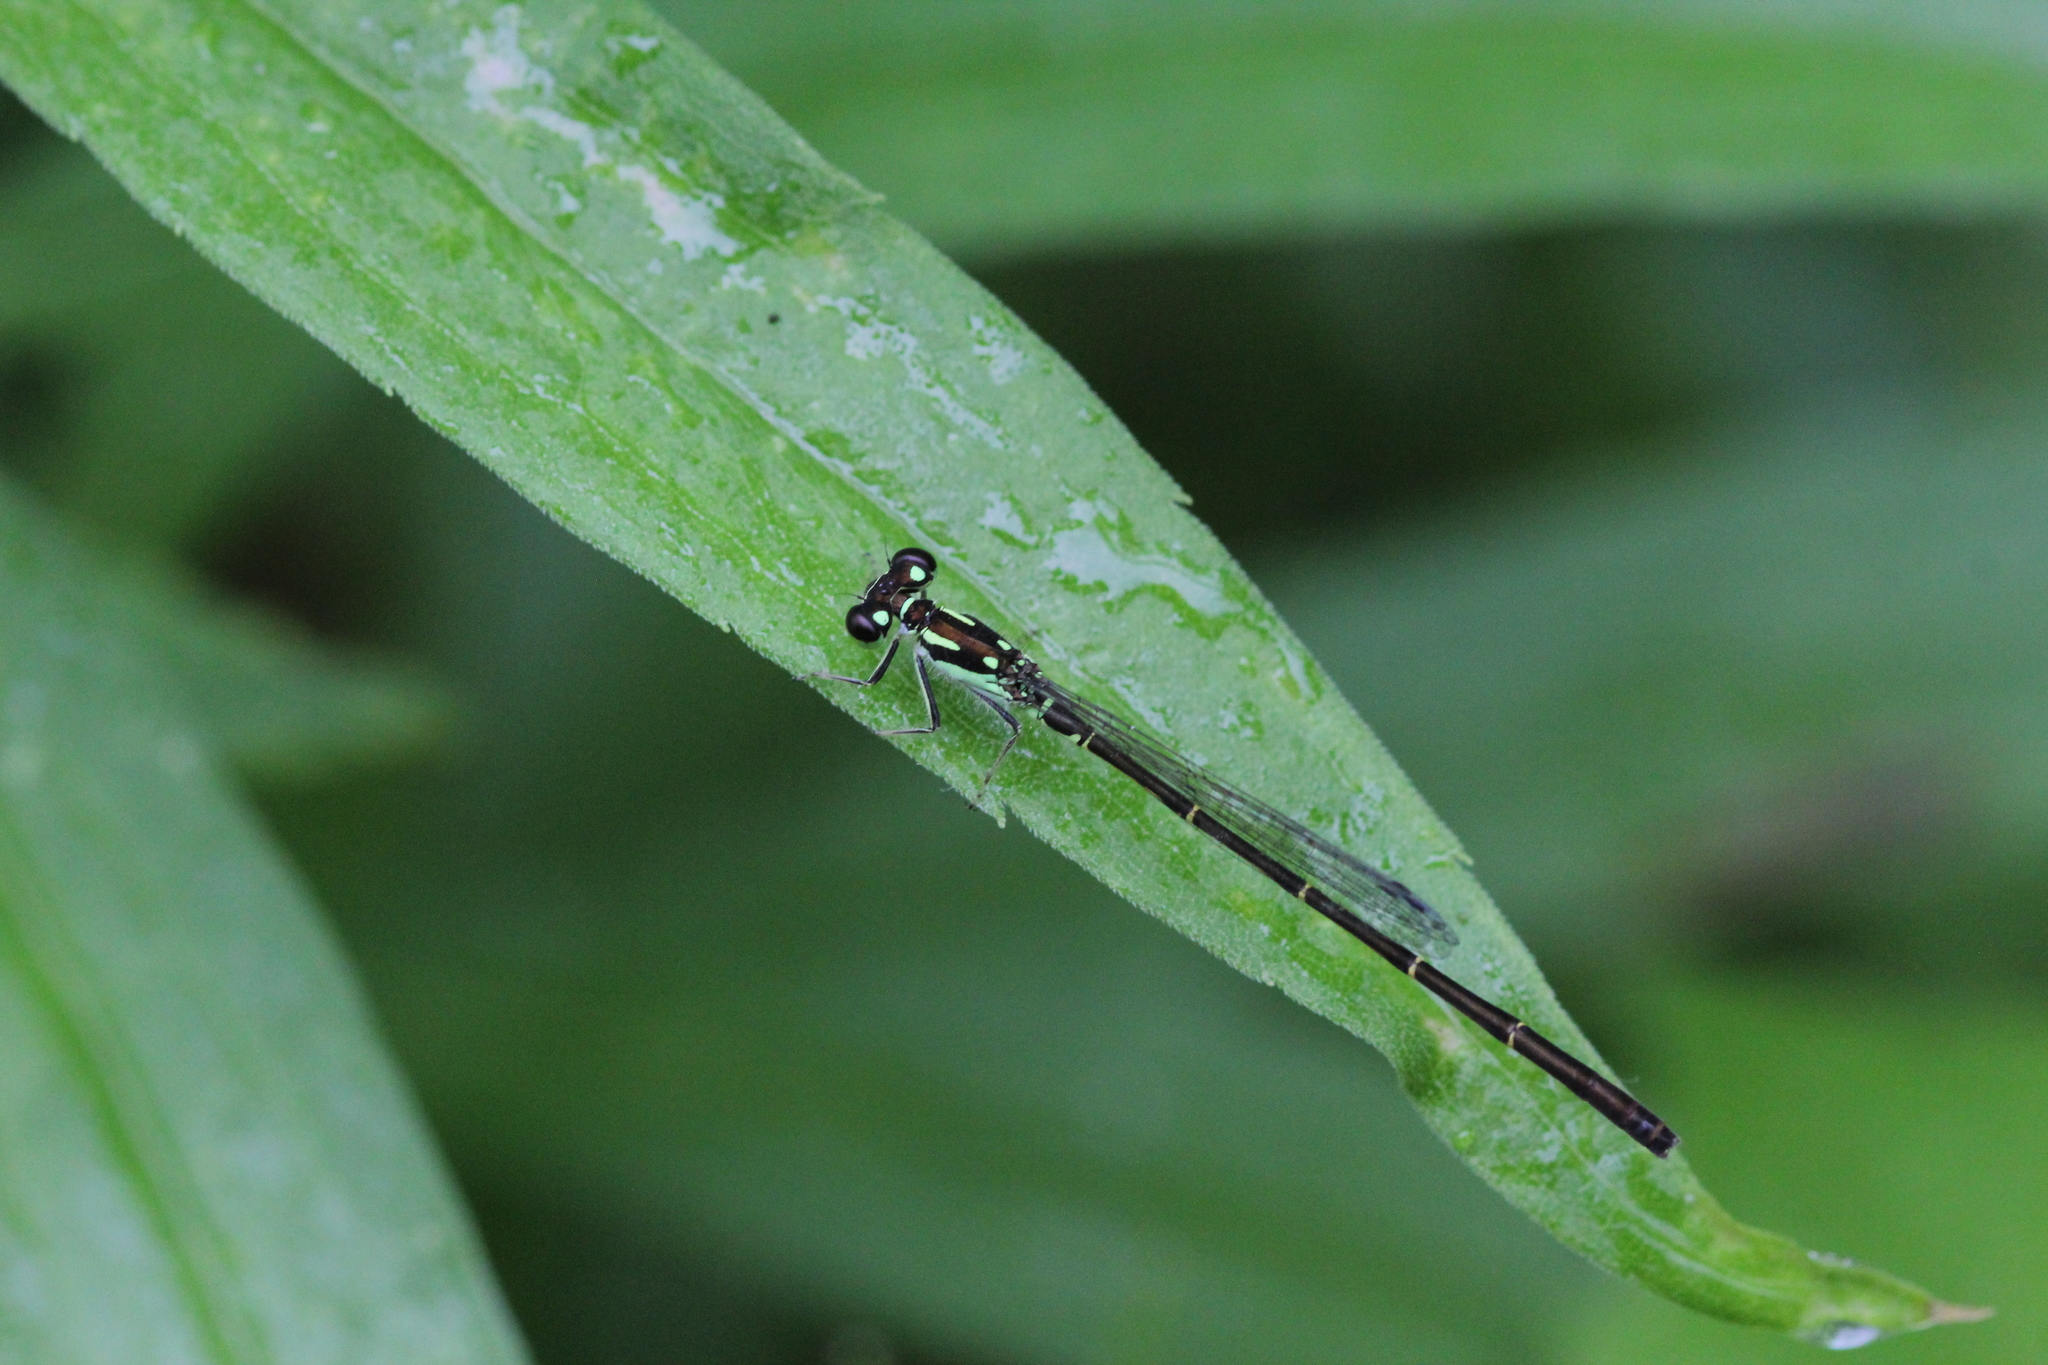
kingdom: Animalia
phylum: Arthropoda
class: Insecta
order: Odonata
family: Coenagrionidae
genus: Ischnura
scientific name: Ischnura posita
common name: Fragile forktail
